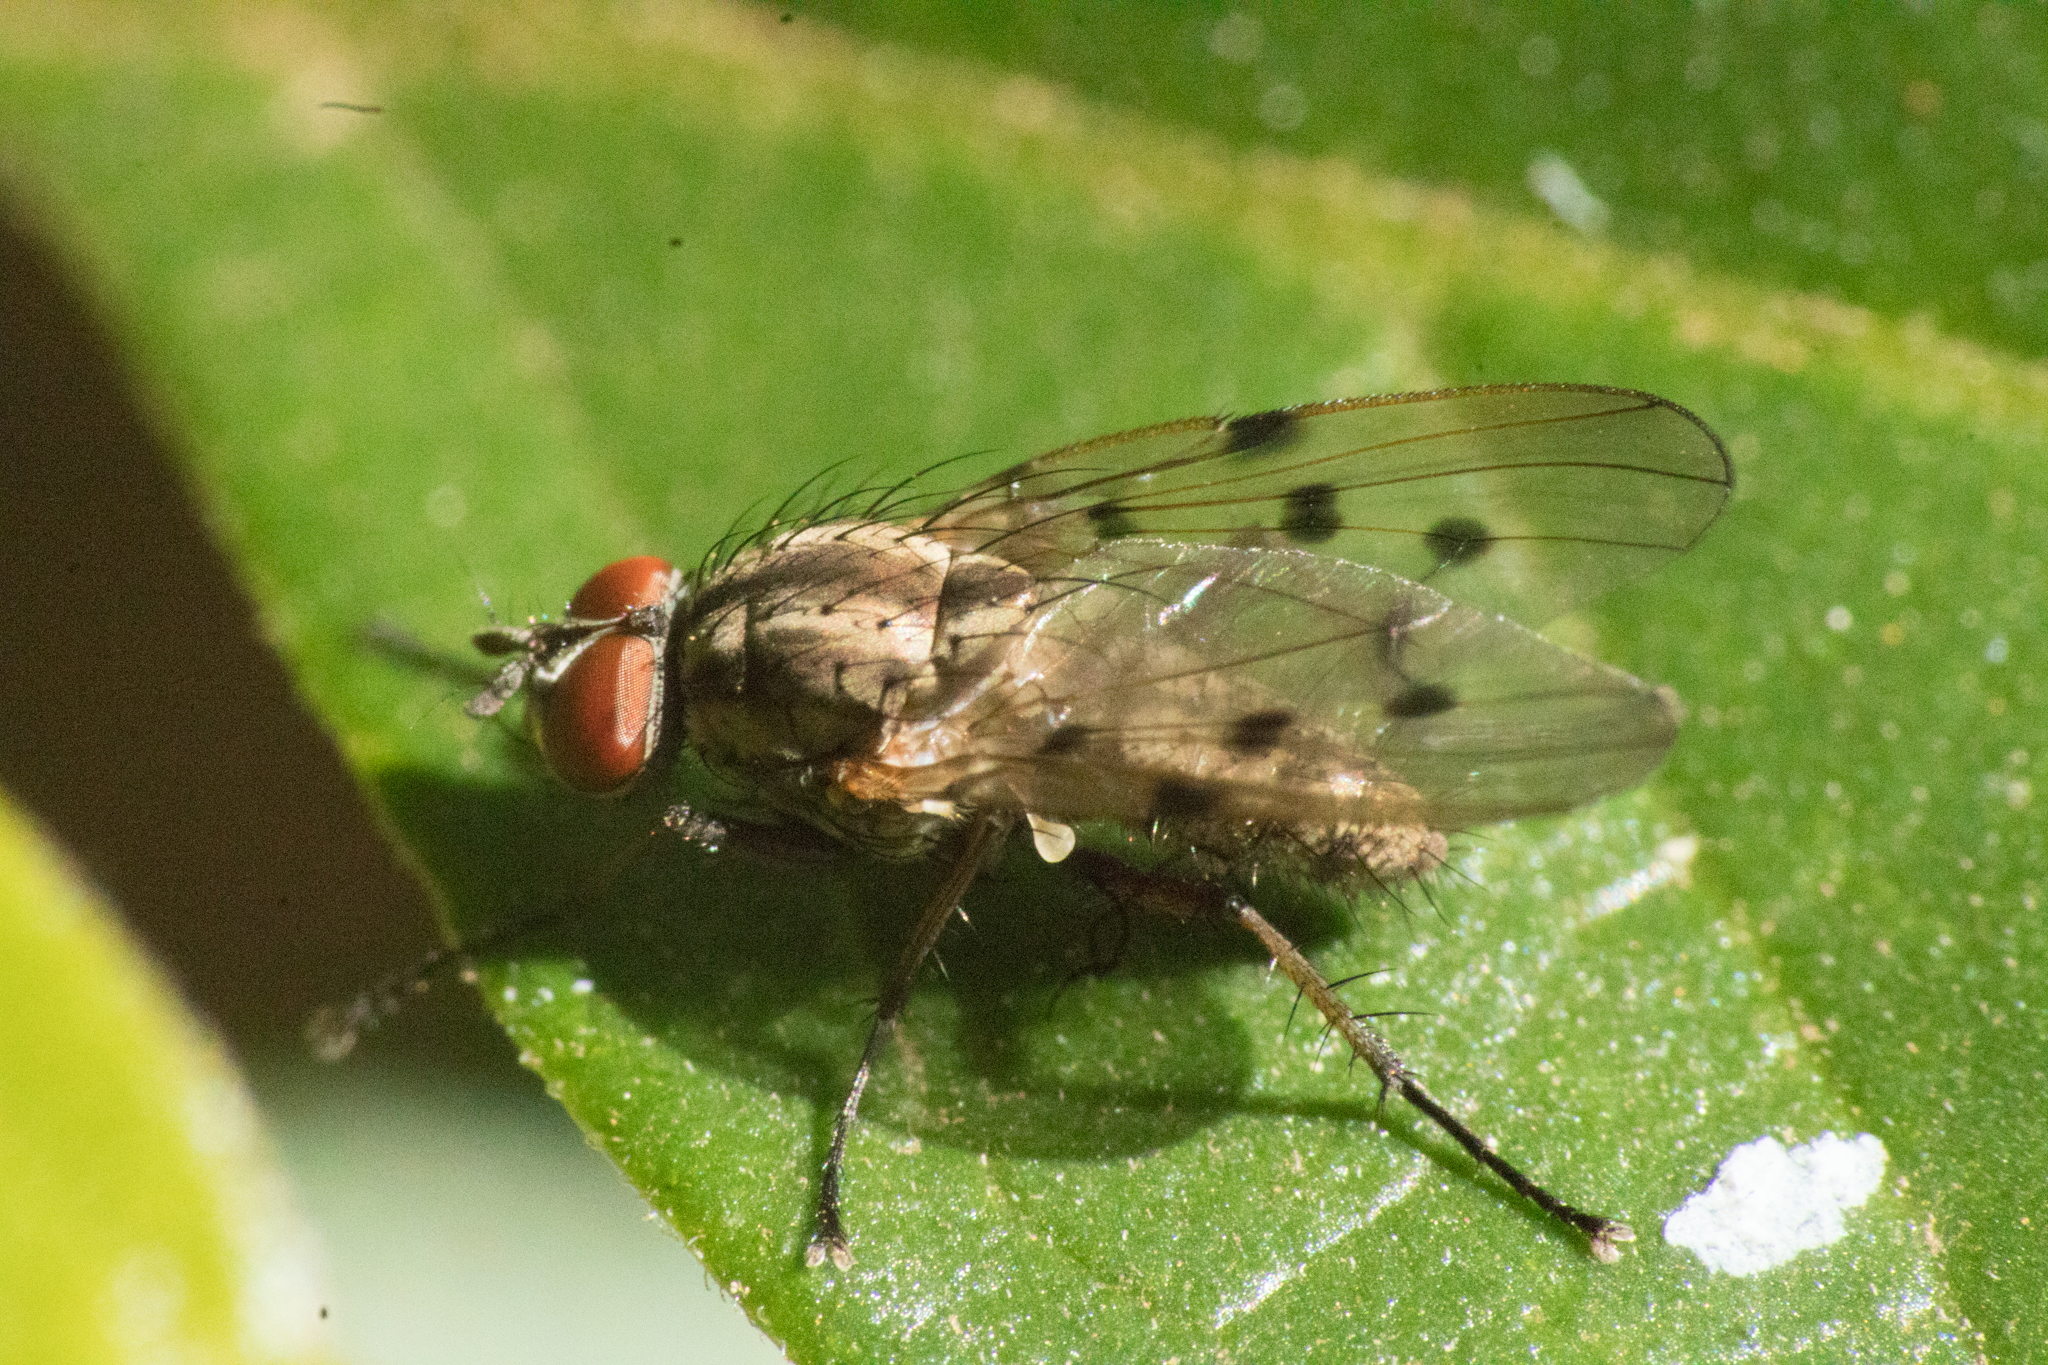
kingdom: Animalia
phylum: Arthropoda
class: Insecta
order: Diptera
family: Anthomyiidae
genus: Anthomyia
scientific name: Anthomyia punctipennis
